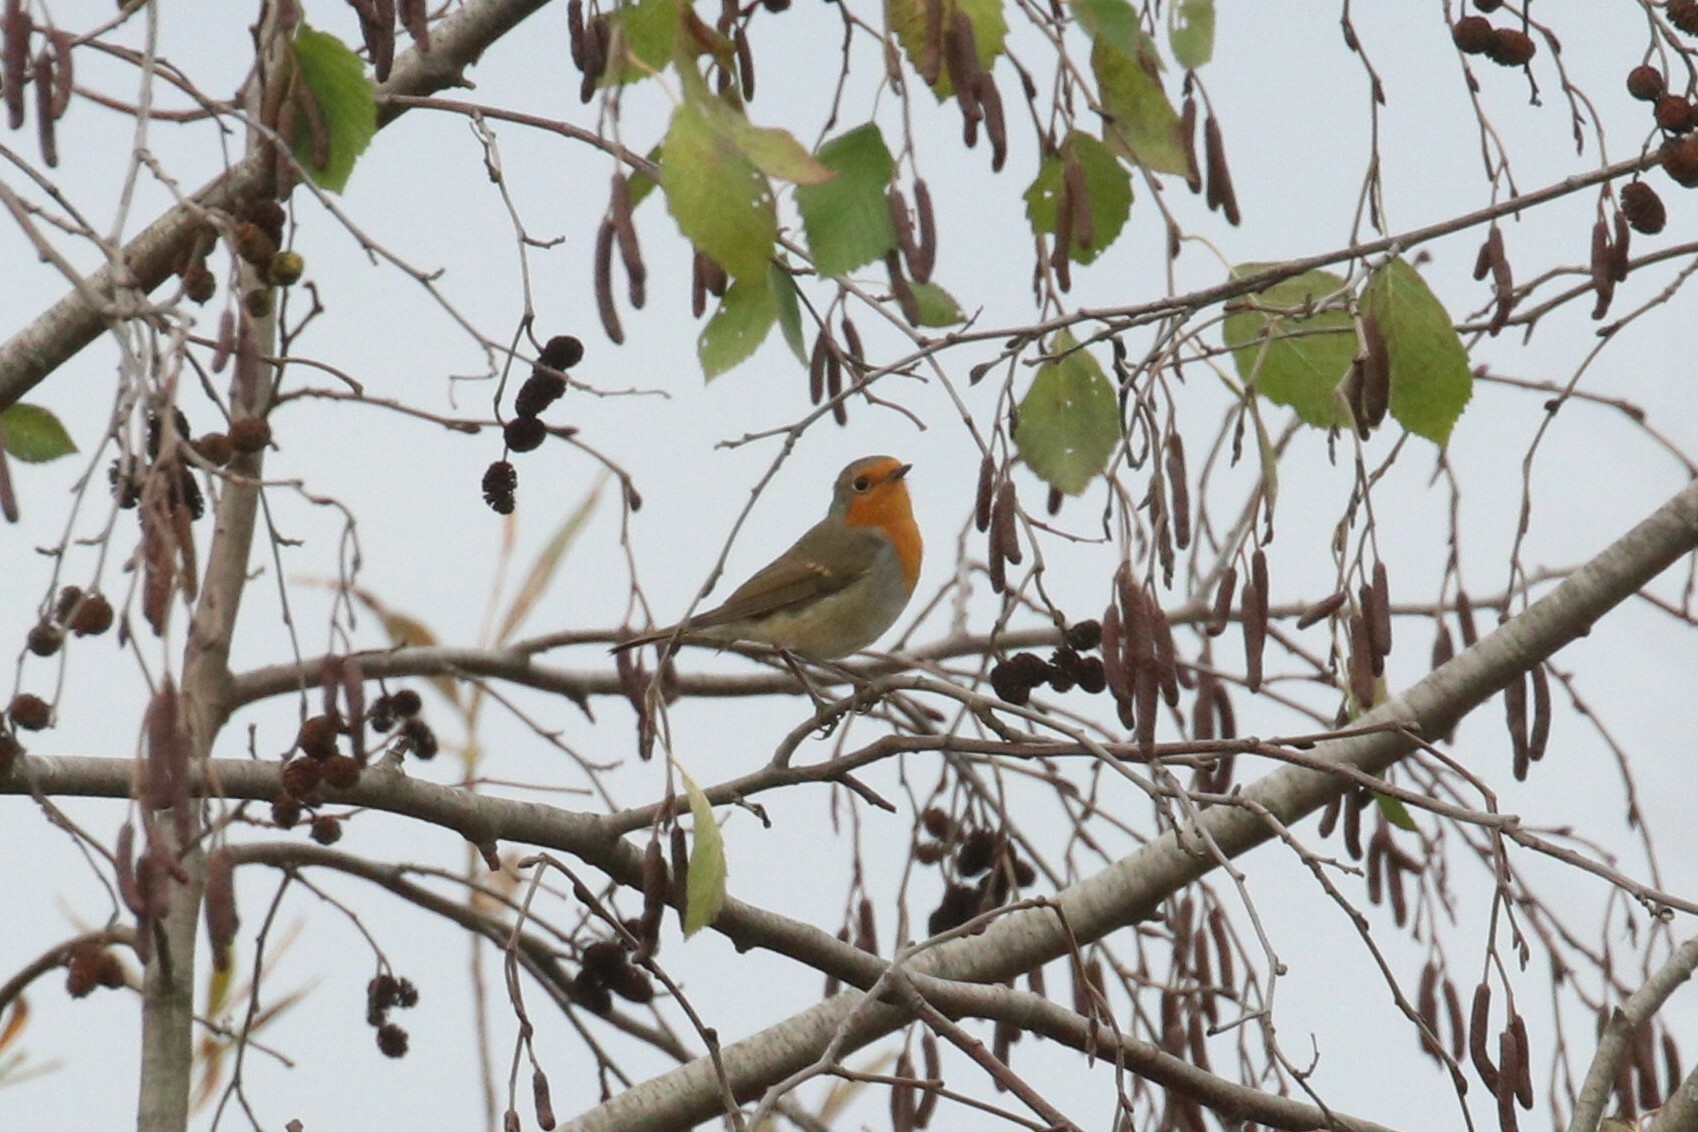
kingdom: Animalia
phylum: Chordata
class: Aves
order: Passeriformes
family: Muscicapidae
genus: Erithacus
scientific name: Erithacus rubecula
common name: European robin
